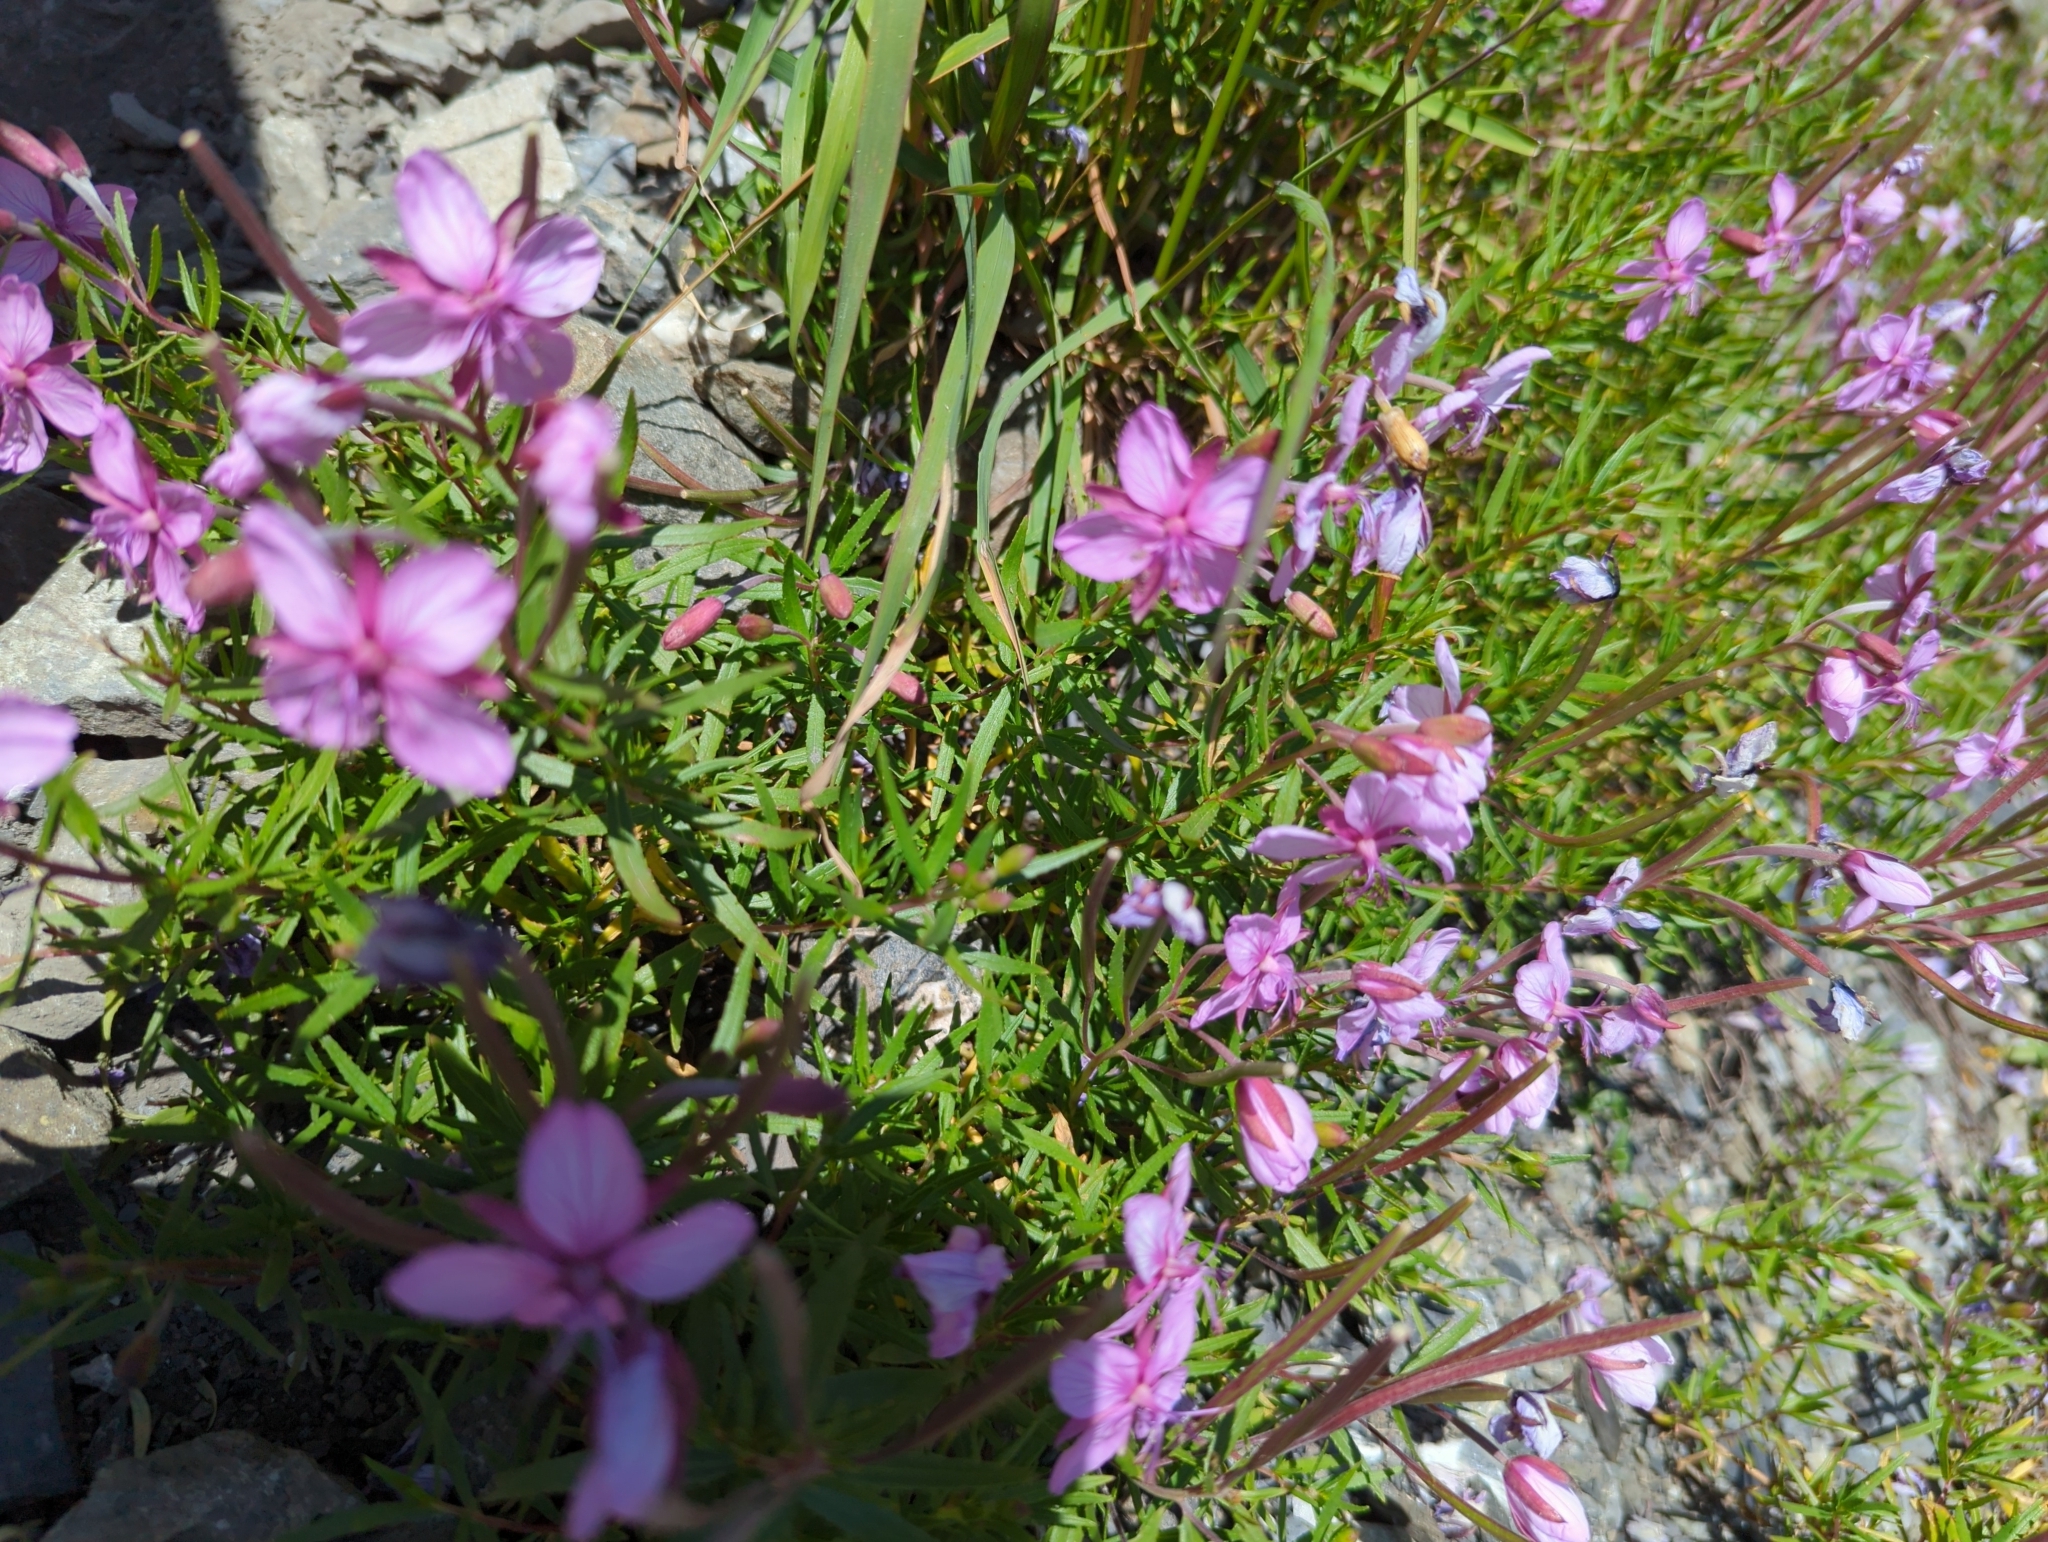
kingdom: Plantae
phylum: Tracheophyta
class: Magnoliopsida
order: Myrtales
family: Onagraceae
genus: Chamaenerion
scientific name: Chamaenerion fleischeri
